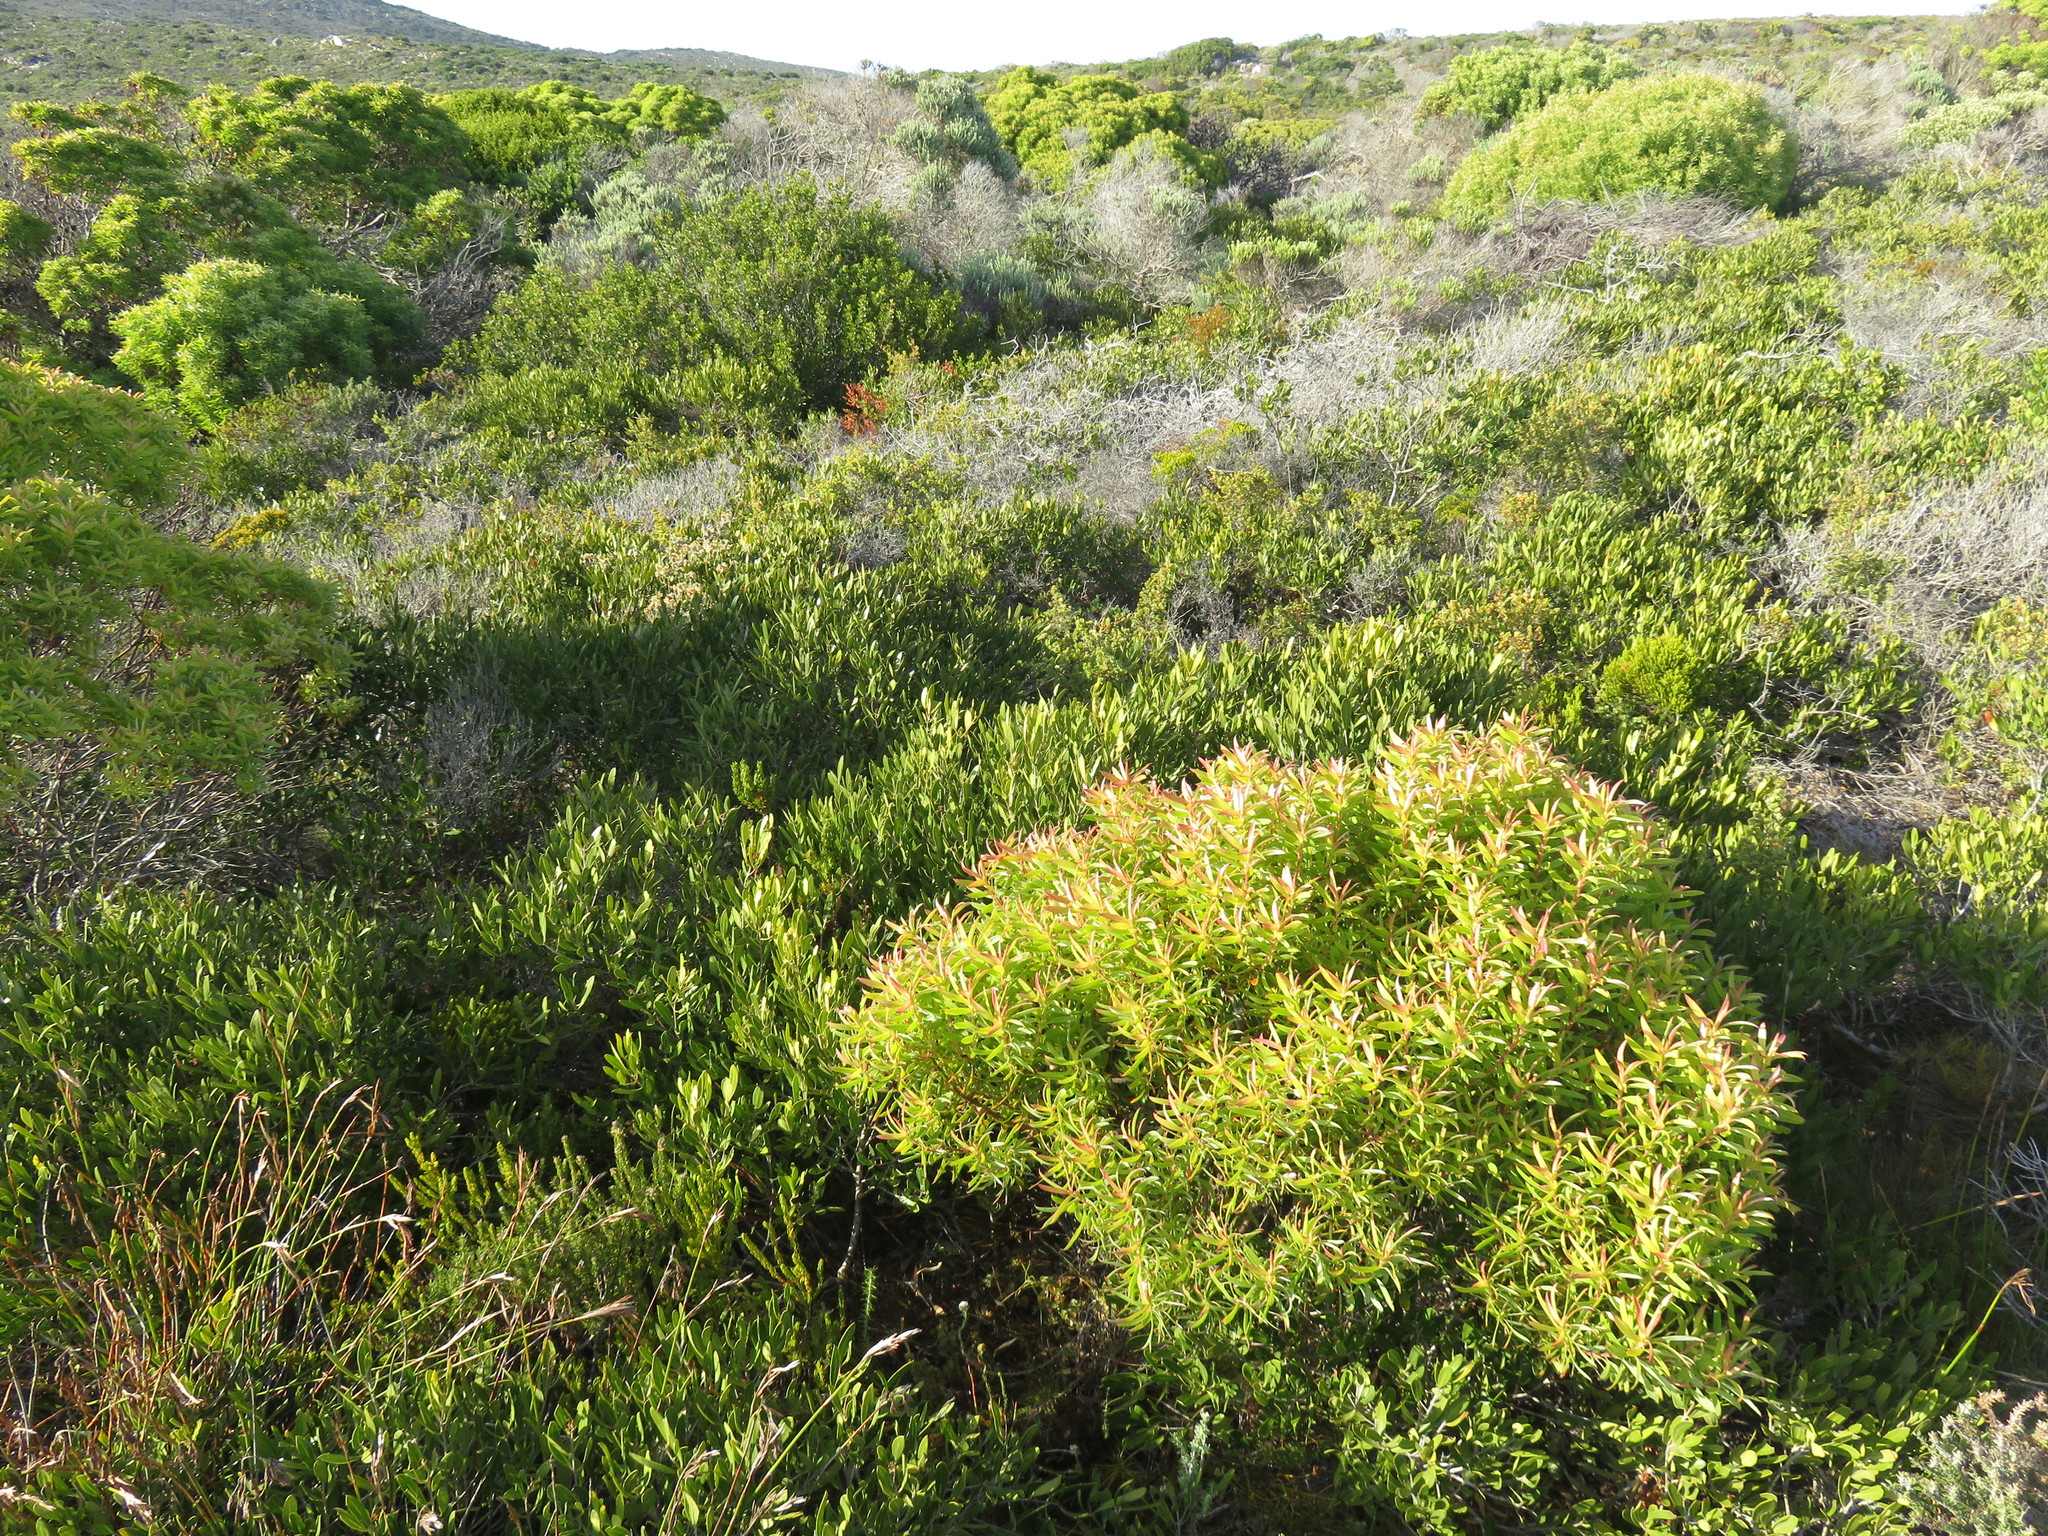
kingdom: Plantae
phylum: Tracheophyta
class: Magnoliopsida
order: Proteales
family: Proteaceae
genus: Leucadendron
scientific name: Leucadendron xanthoconus
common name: Sickle-leaf conebush
